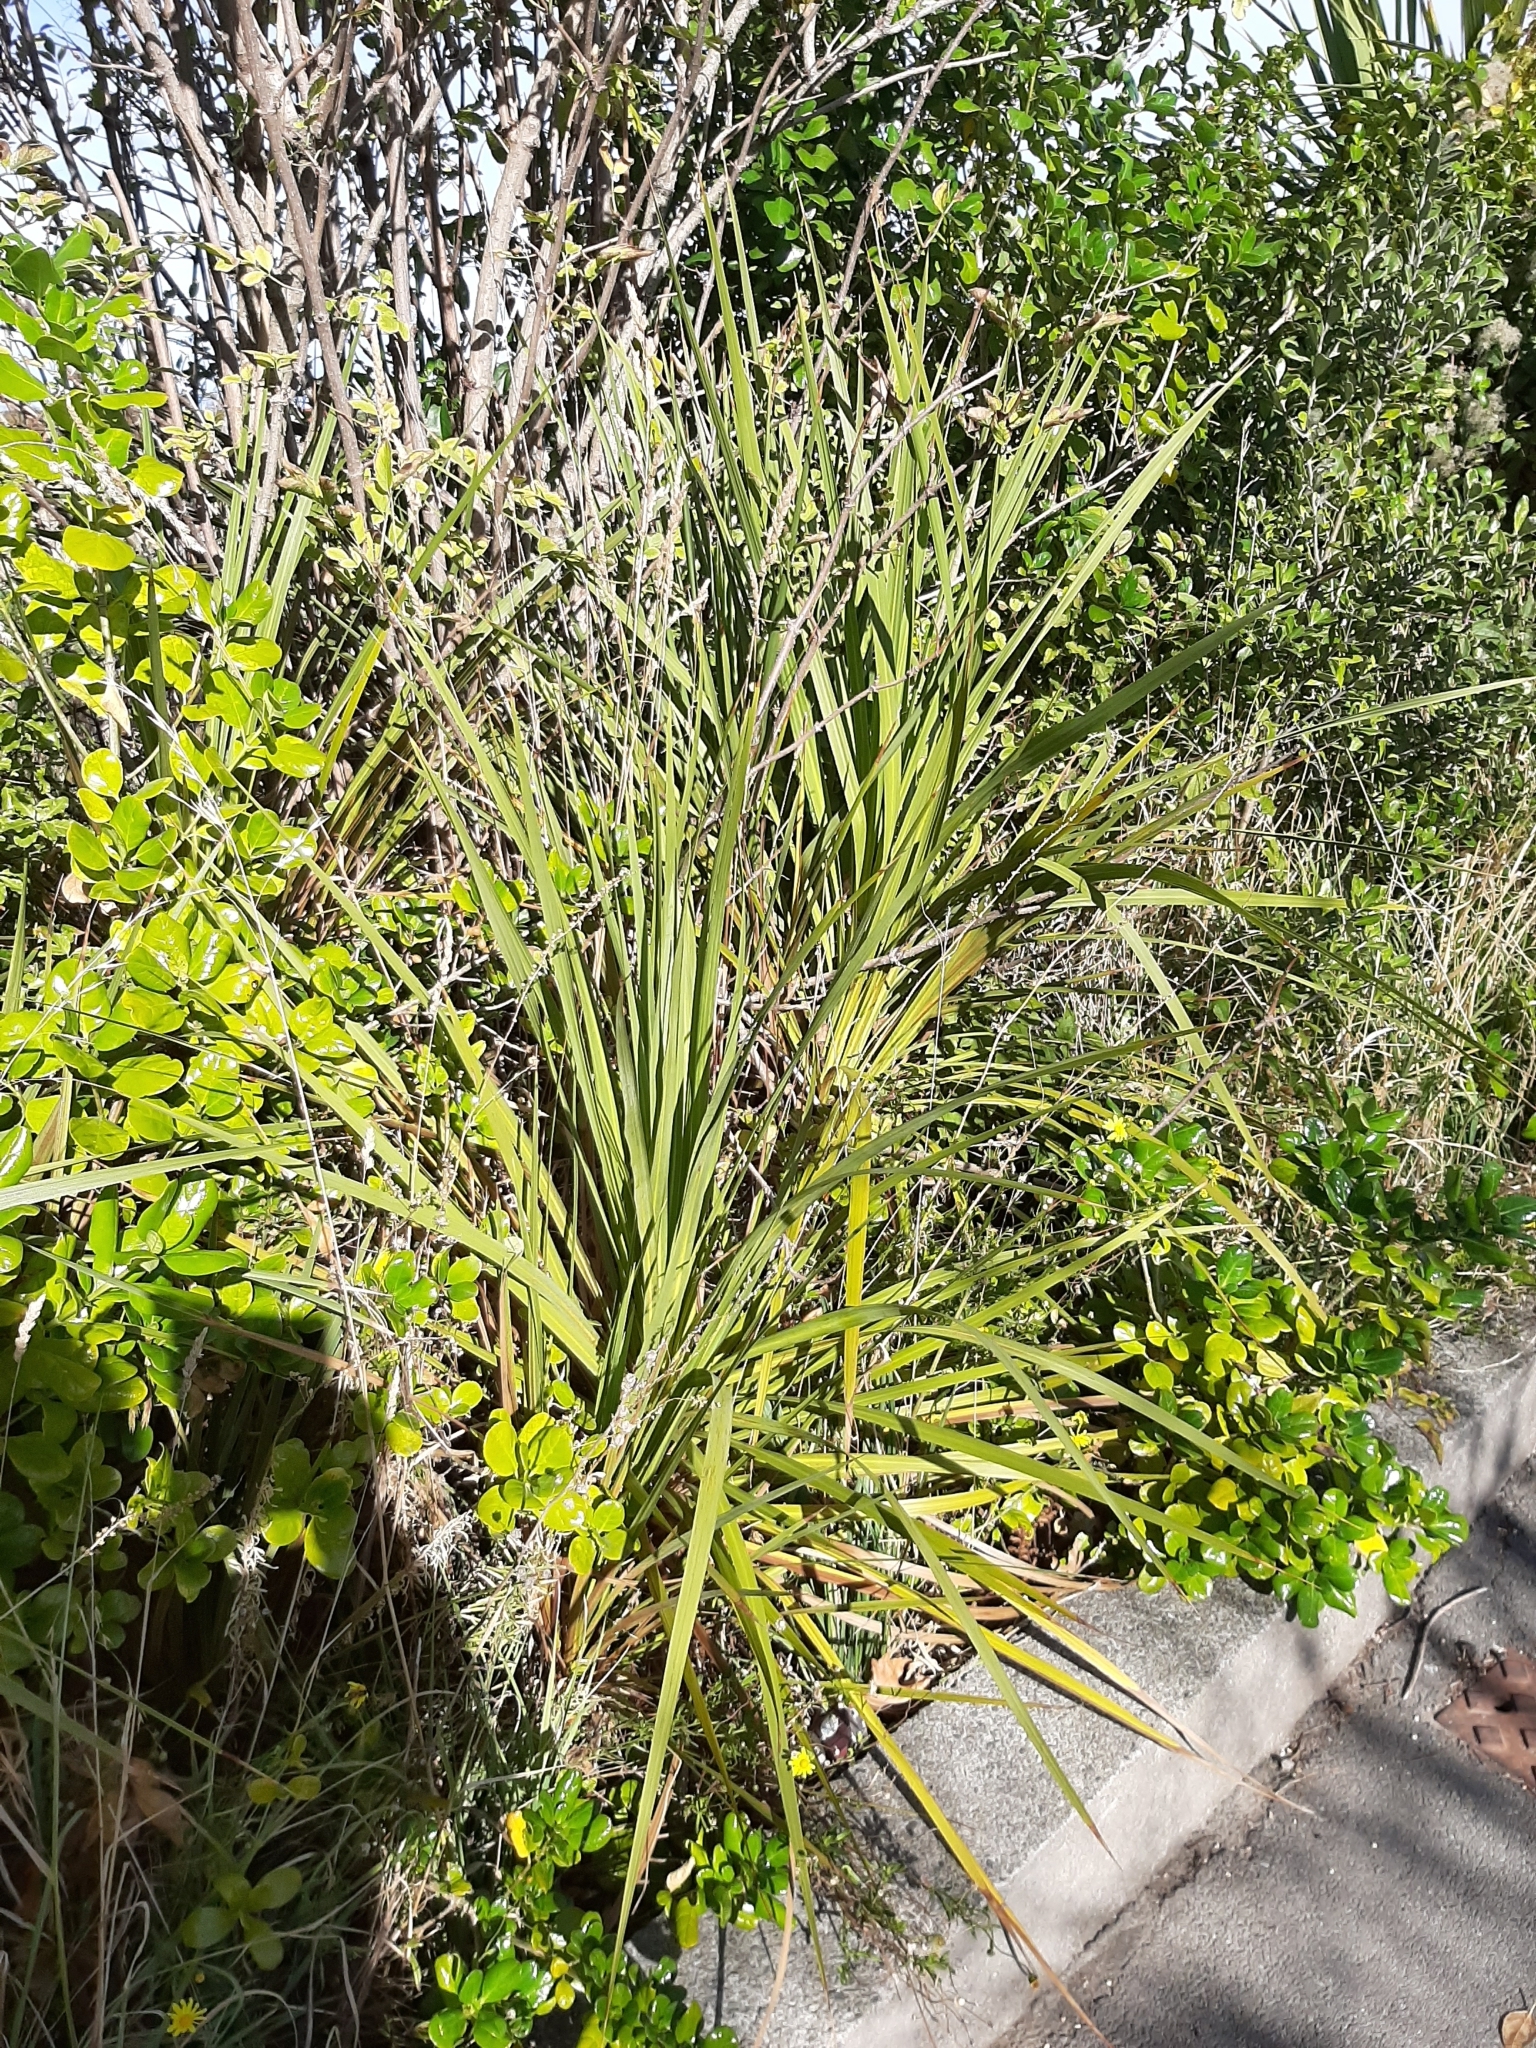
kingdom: Plantae
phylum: Tracheophyta
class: Liliopsida
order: Asparagales
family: Asparagaceae
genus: Cordyline
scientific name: Cordyline australis
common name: Cabbage-palm
